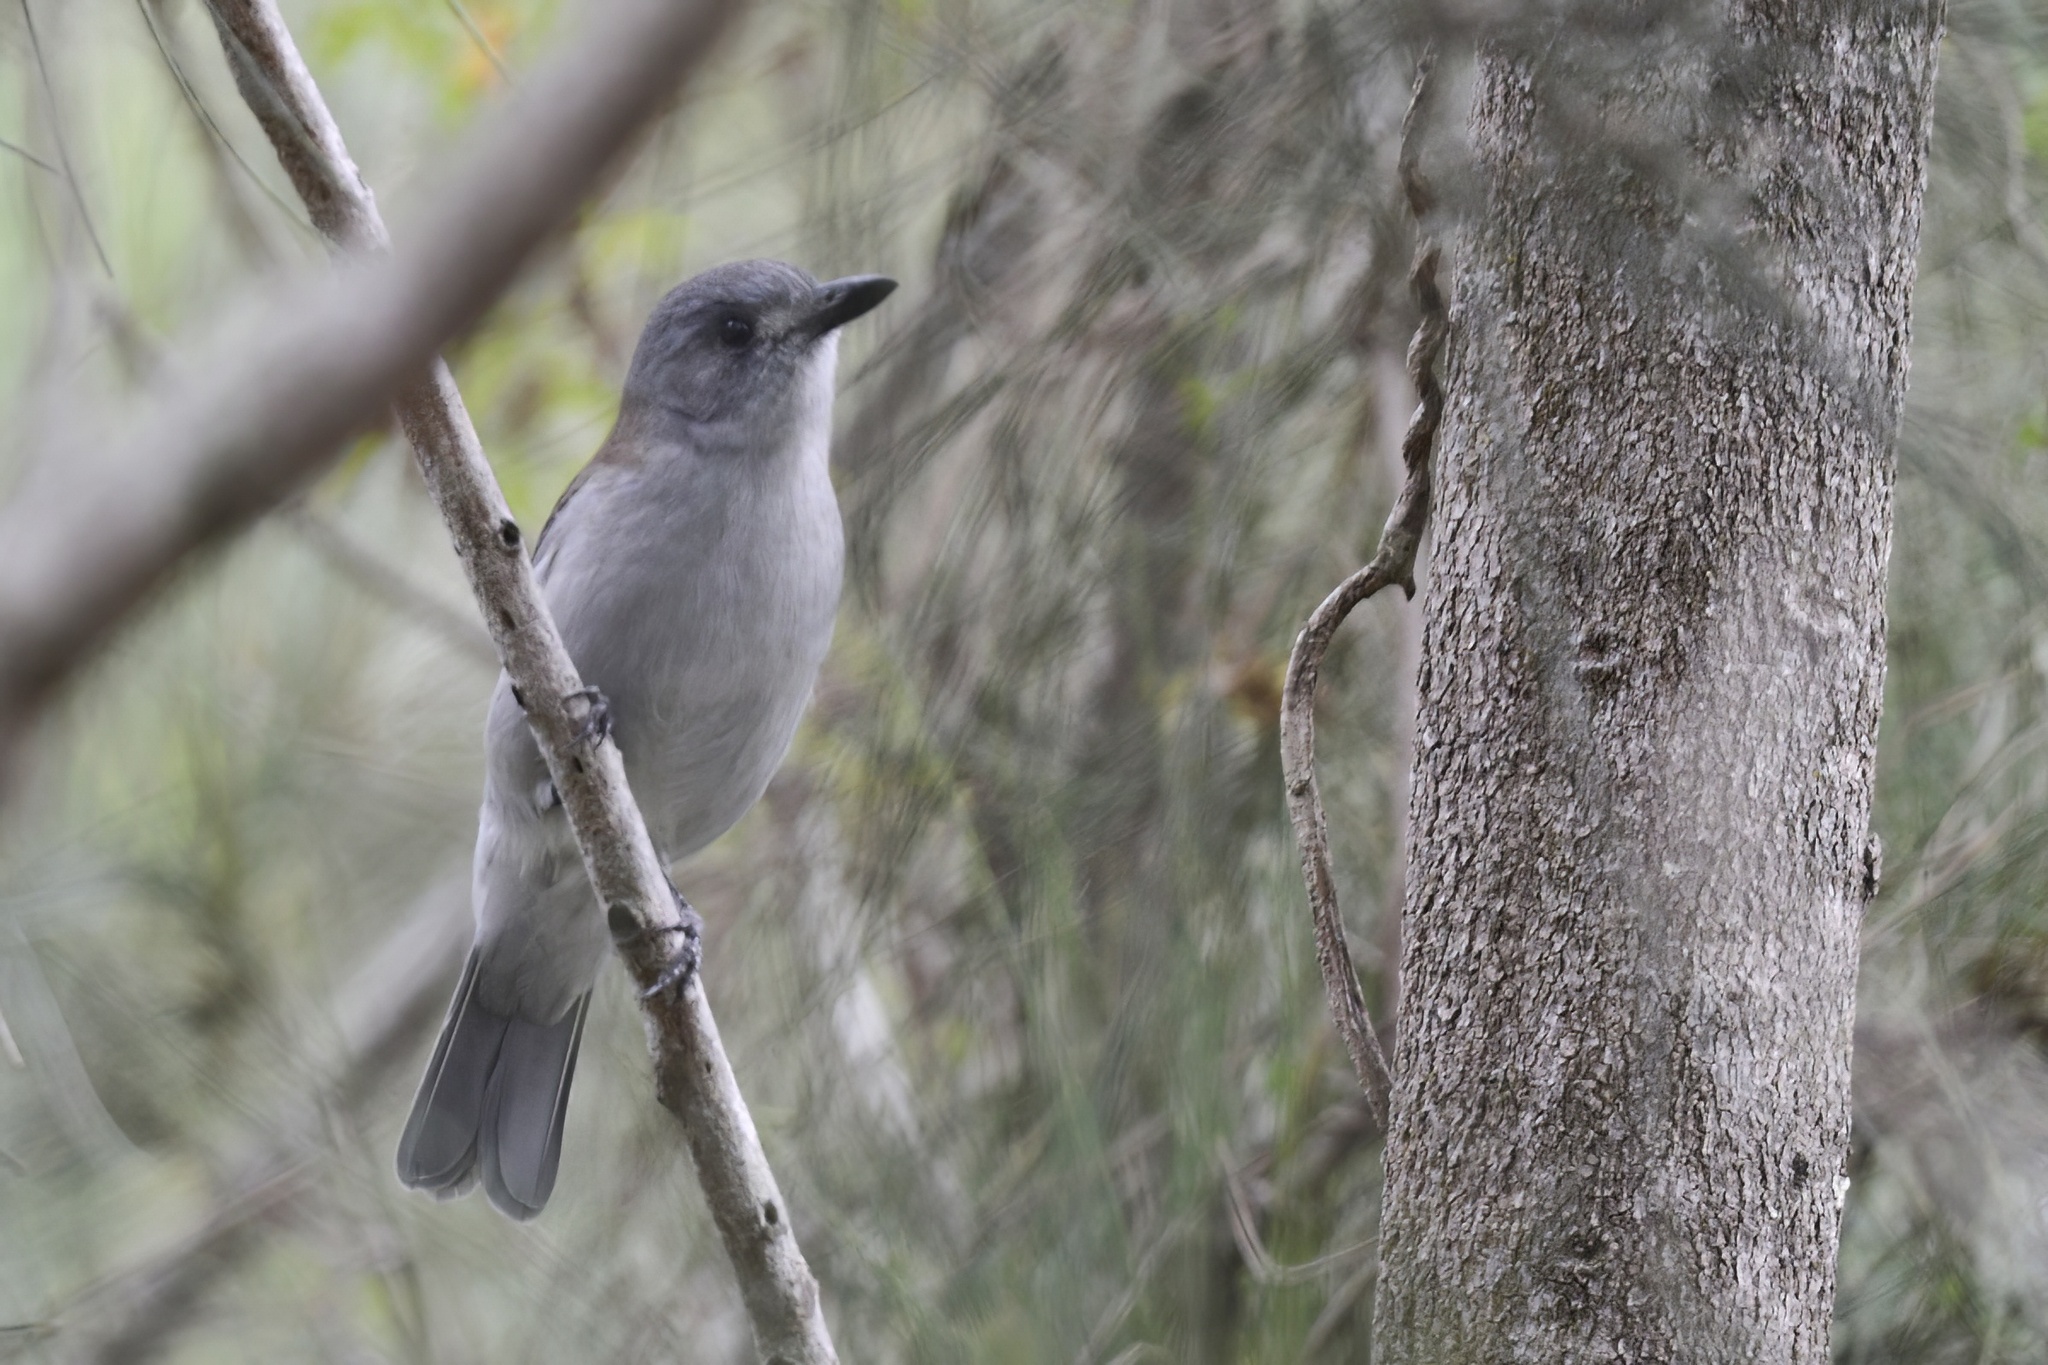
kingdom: Animalia
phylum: Chordata
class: Aves
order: Passeriformes
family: Pachycephalidae
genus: Colluricincla
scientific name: Colluricincla harmonica
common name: Grey shrikethrush
